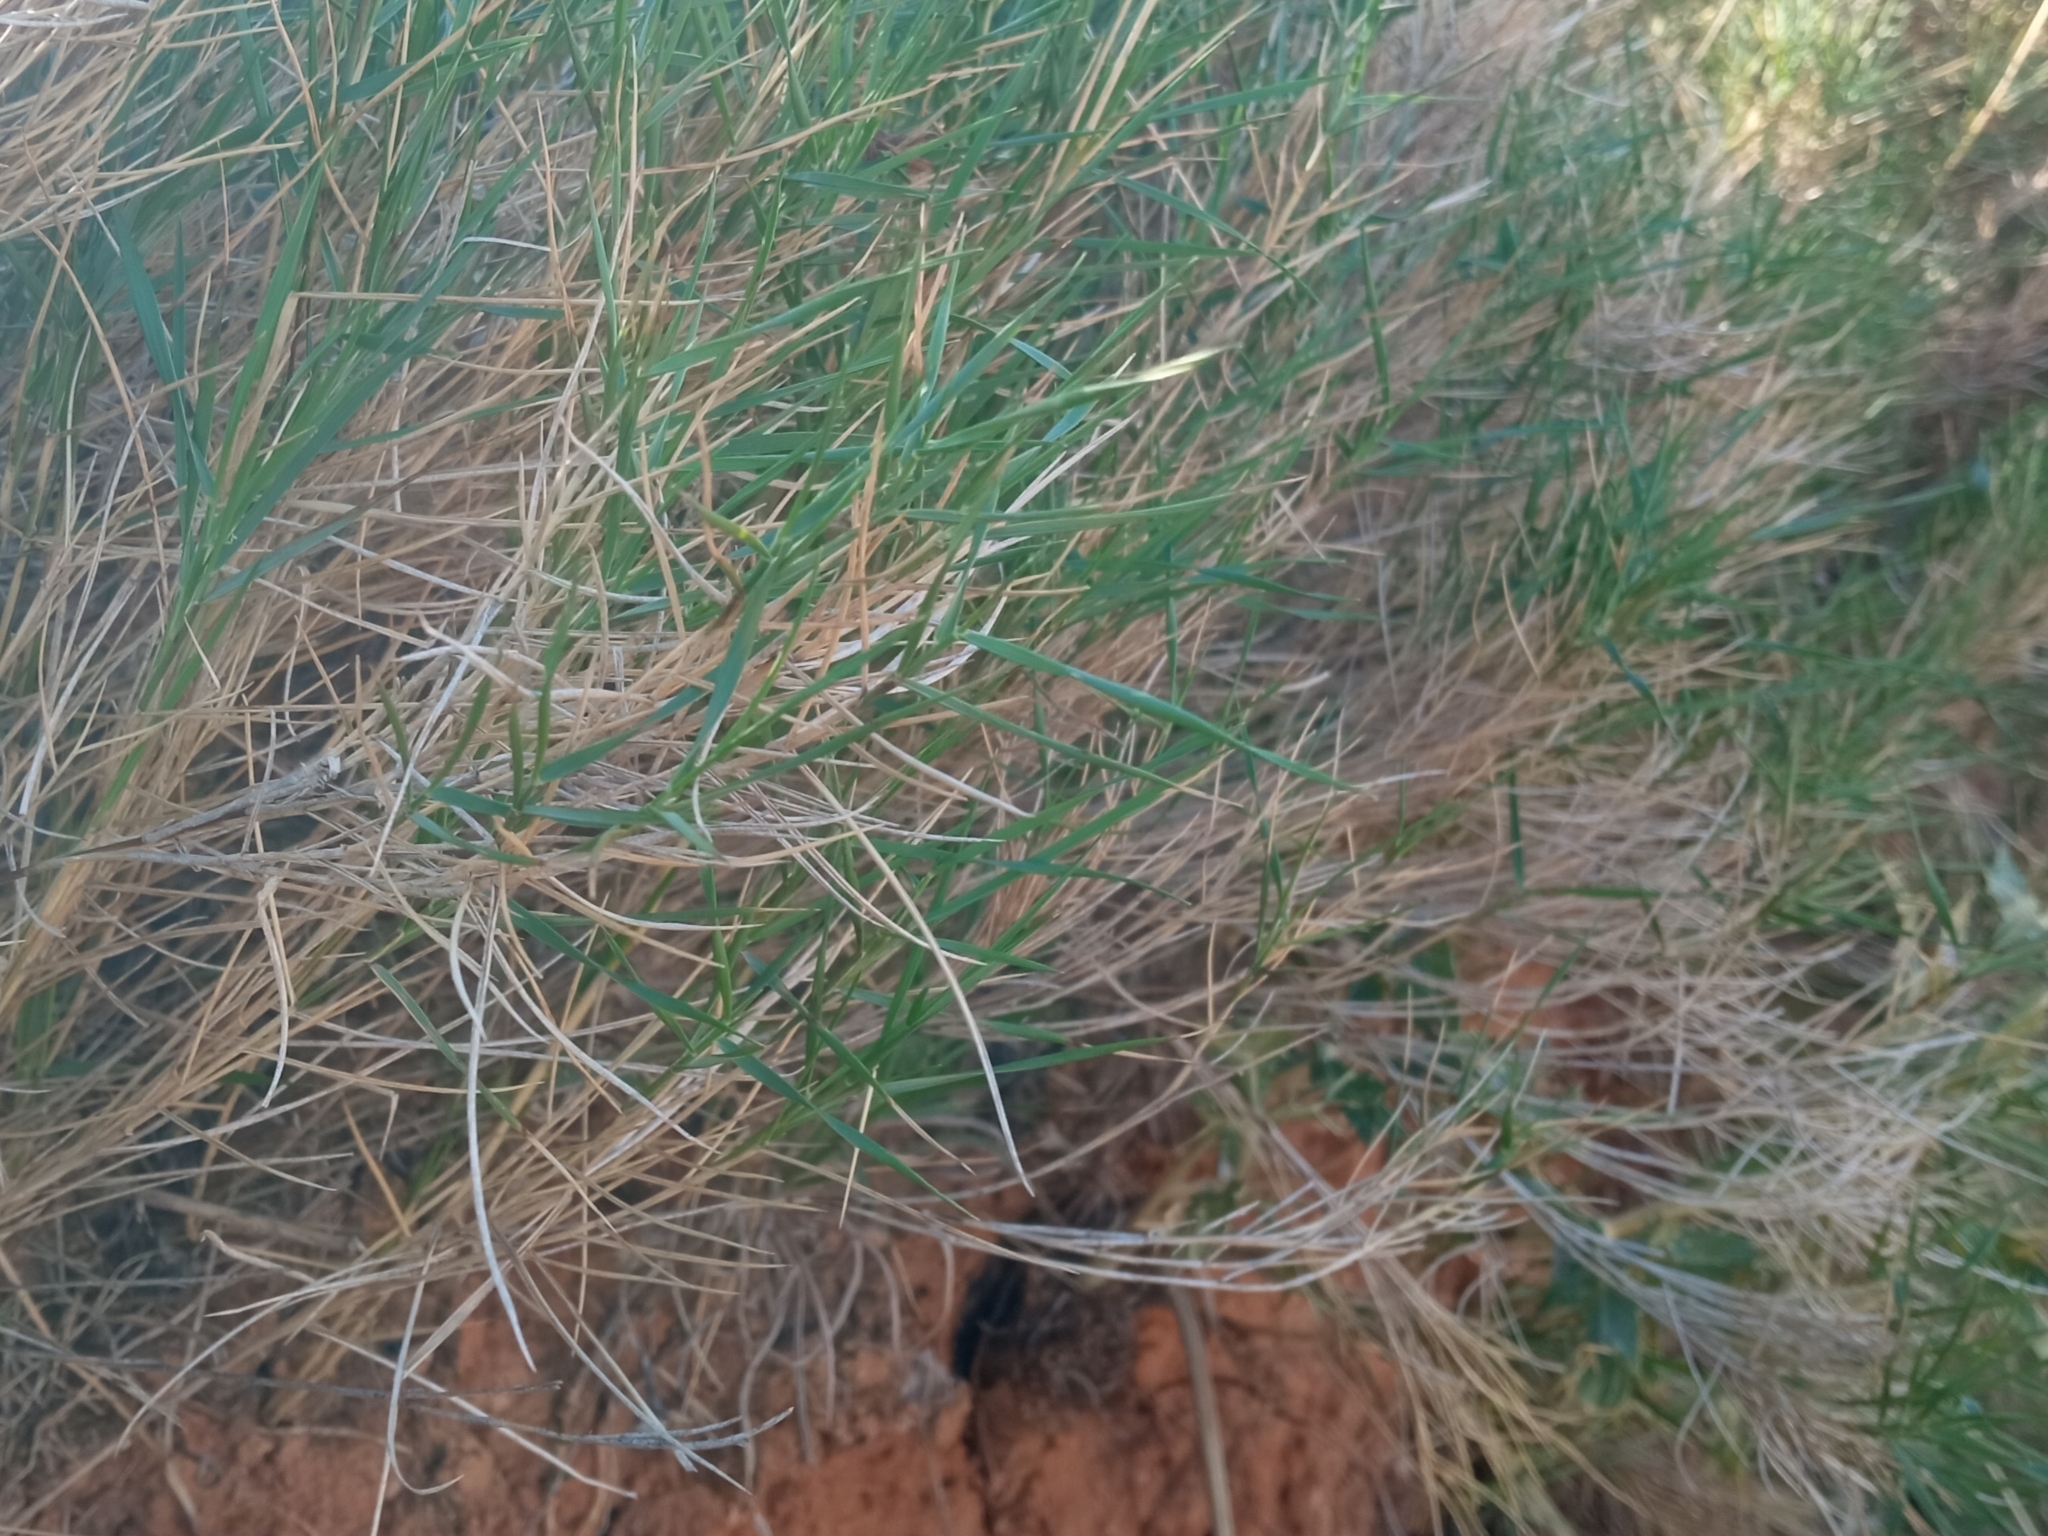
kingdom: Plantae
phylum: Tracheophyta
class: Liliopsida
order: Poales
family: Poaceae
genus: Brachypodium
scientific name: Brachypodium retusum
